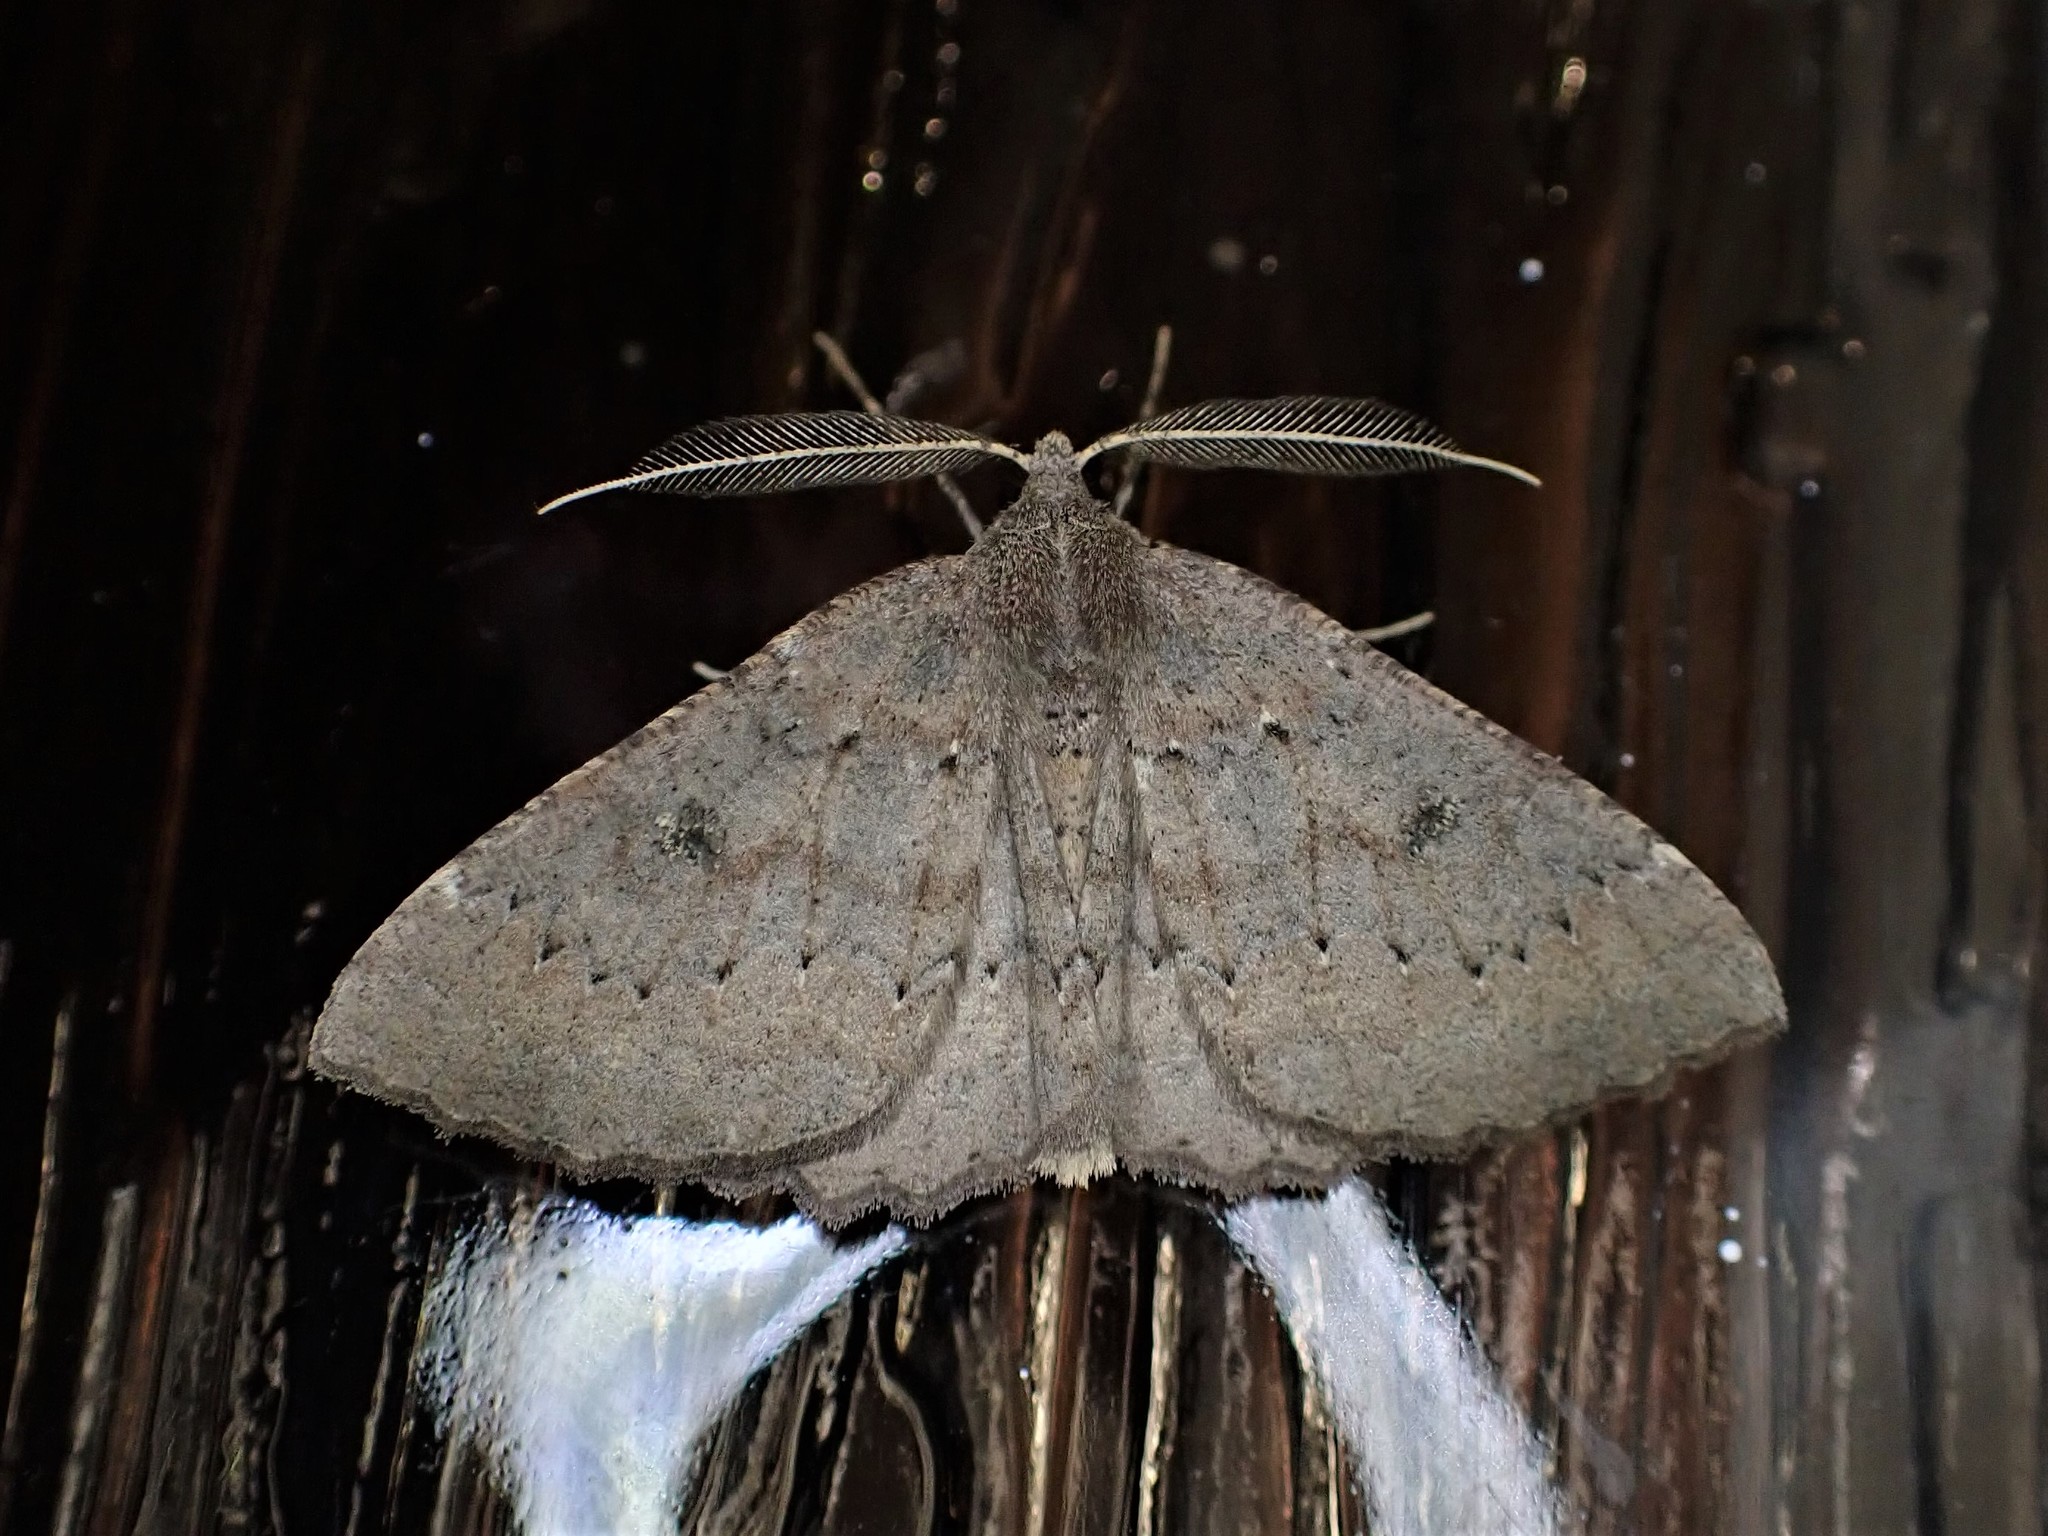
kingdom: Animalia
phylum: Arthropoda
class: Insecta
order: Lepidoptera
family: Geometridae
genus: Cleora
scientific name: Cleora scriptaria
